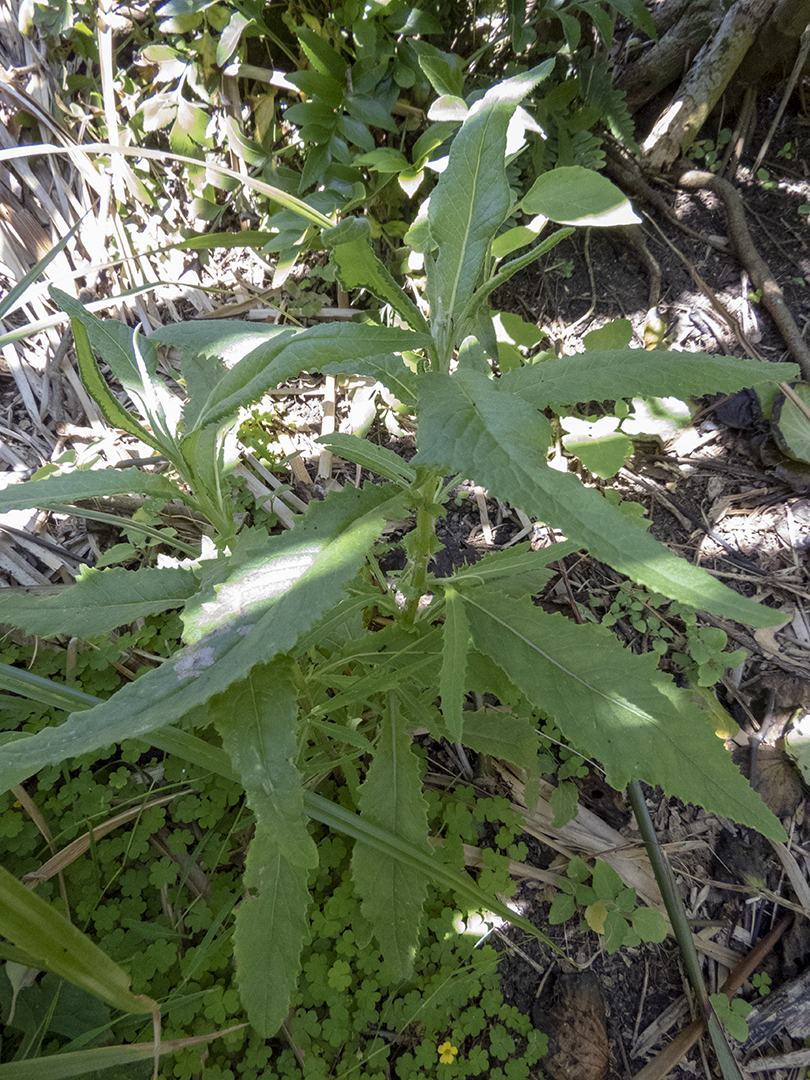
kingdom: Plantae
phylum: Tracheophyta
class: Magnoliopsida
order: Asterales
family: Asteraceae
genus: Senecio
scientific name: Senecio minimus
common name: Toothed fireweed
